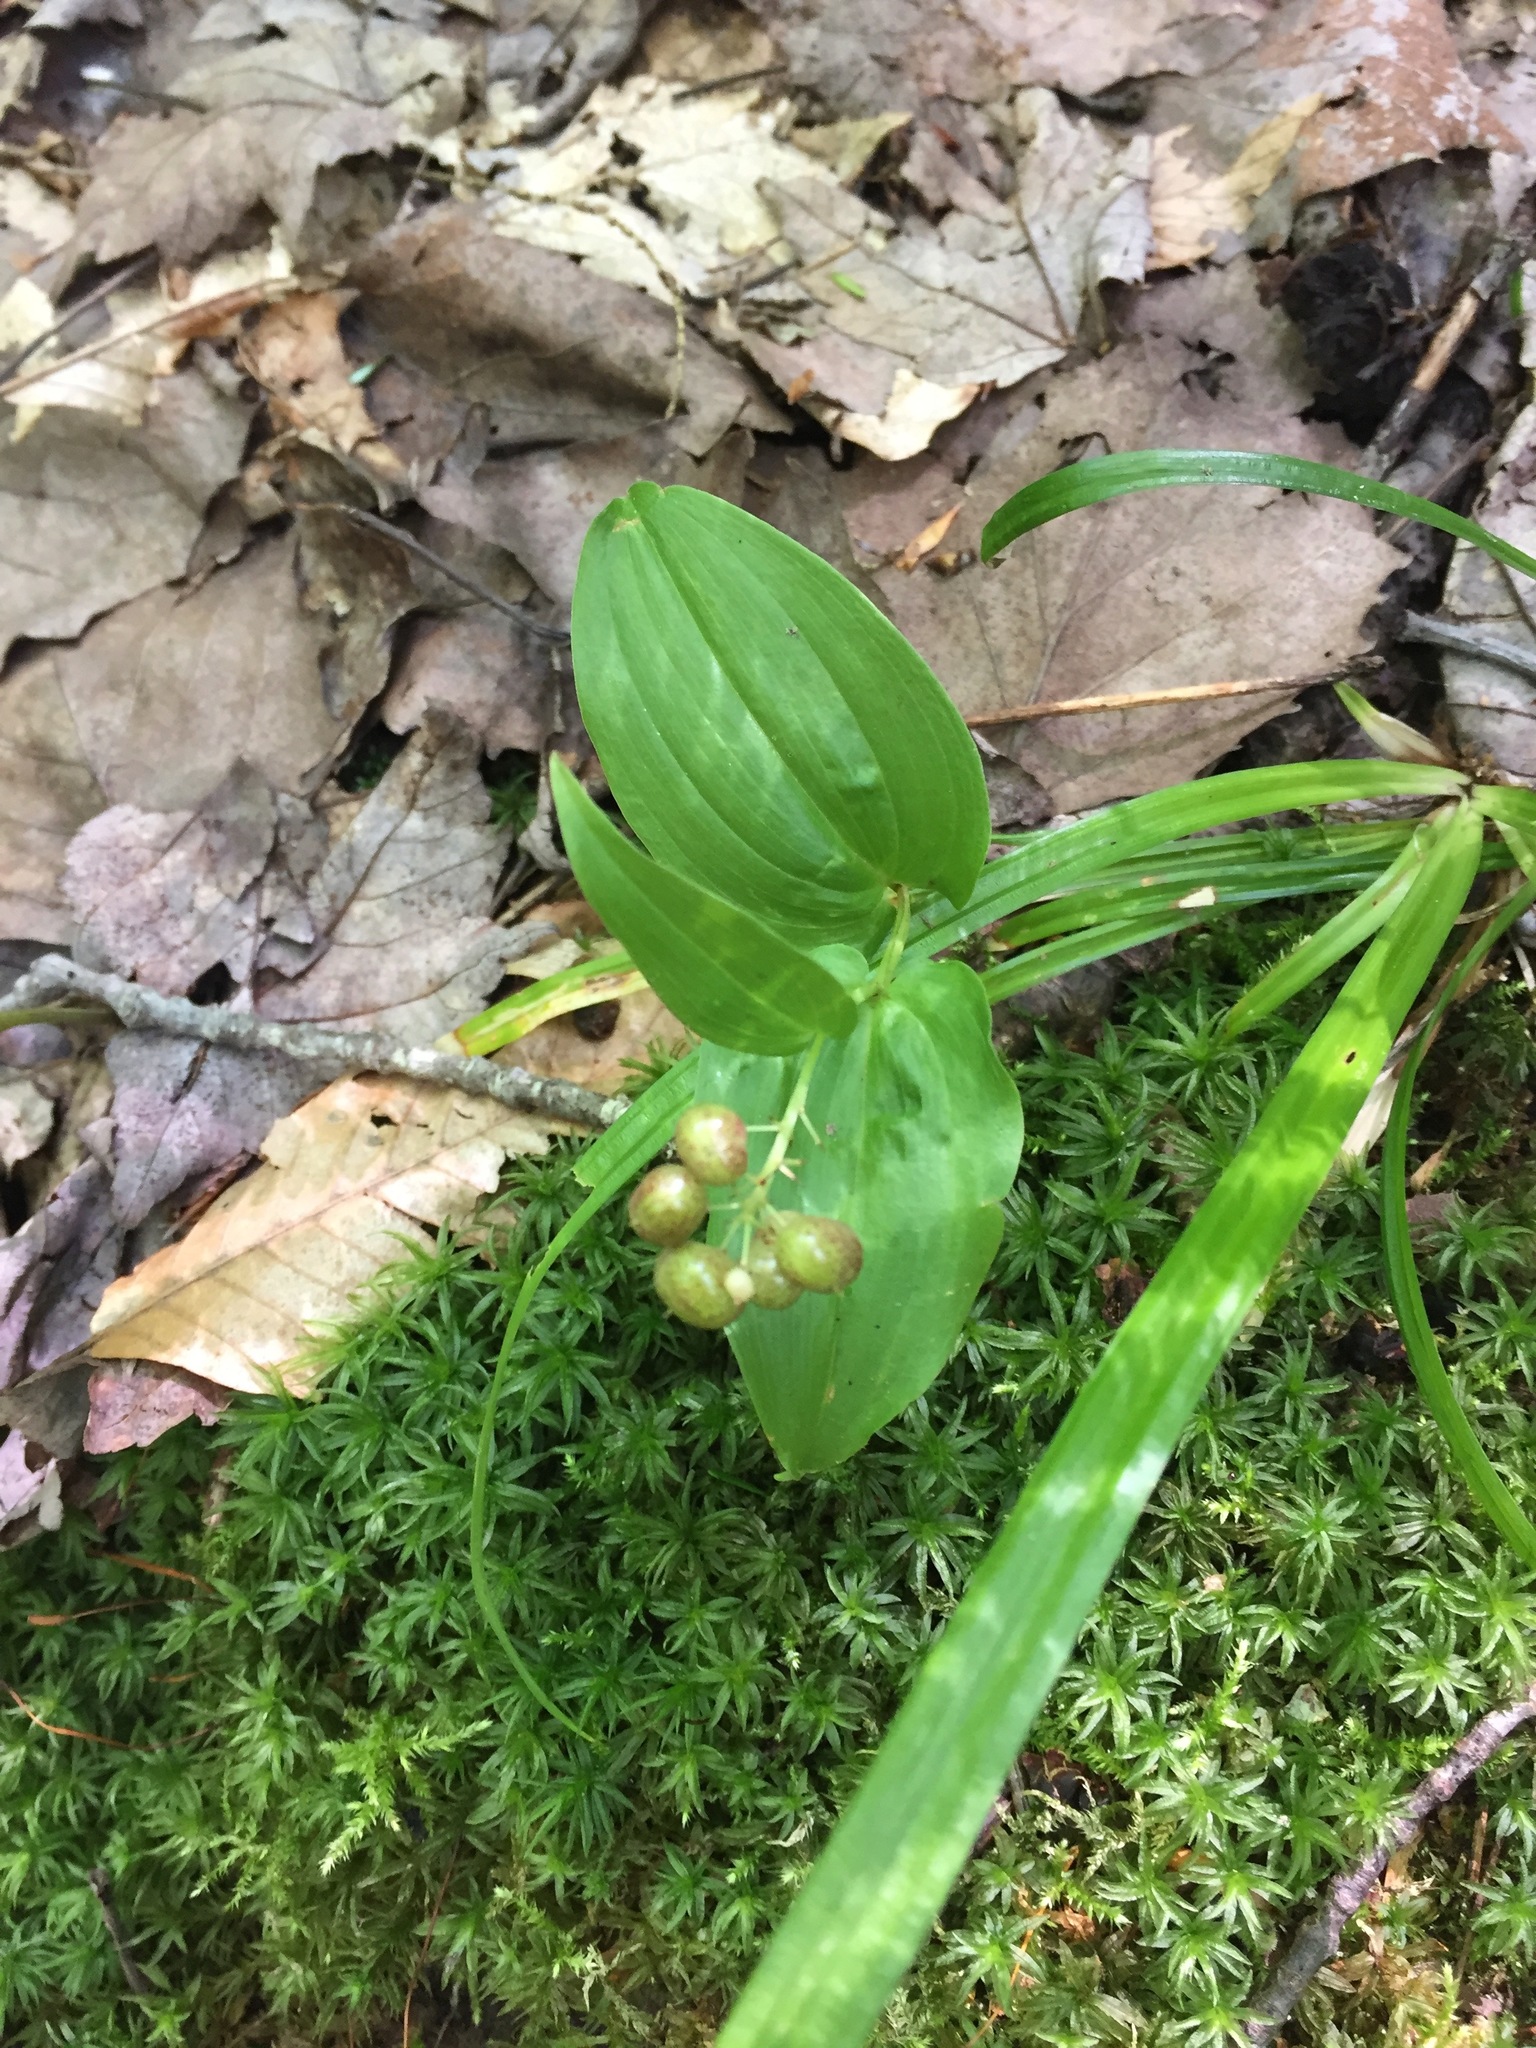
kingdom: Plantae
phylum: Tracheophyta
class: Liliopsida
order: Asparagales
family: Asparagaceae
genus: Maianthemum
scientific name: Maianthemum canadense
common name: False lily-of-the-valley
